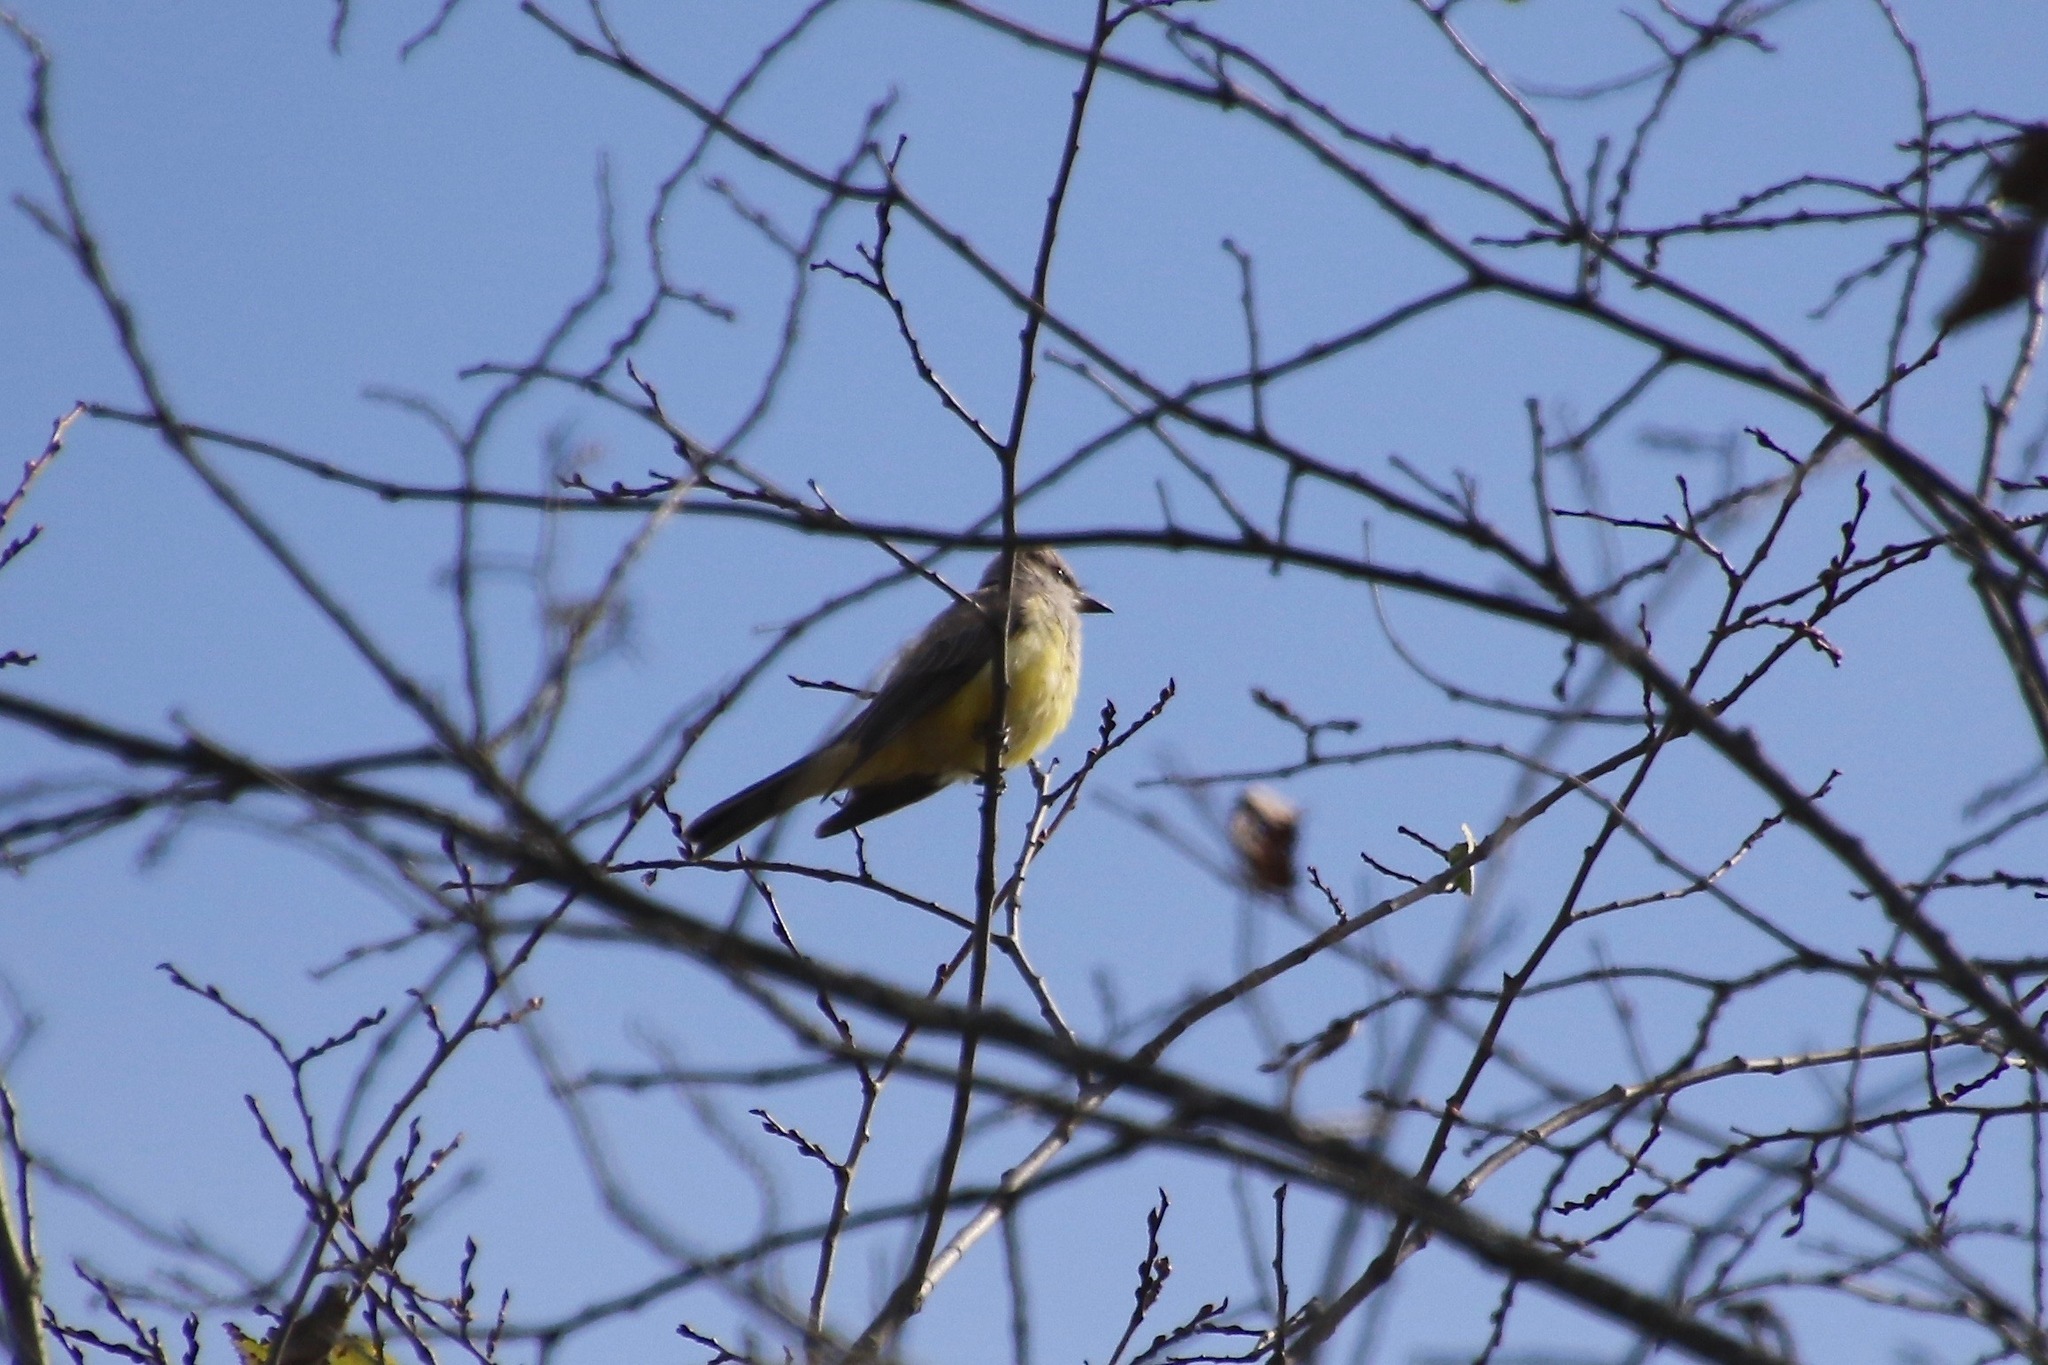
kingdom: Animalia
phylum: Chordata
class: Aves
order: Passeriformes
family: Tyrannidae
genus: Tyrannus
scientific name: Tyrannus verticalis
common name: Western kingbird
